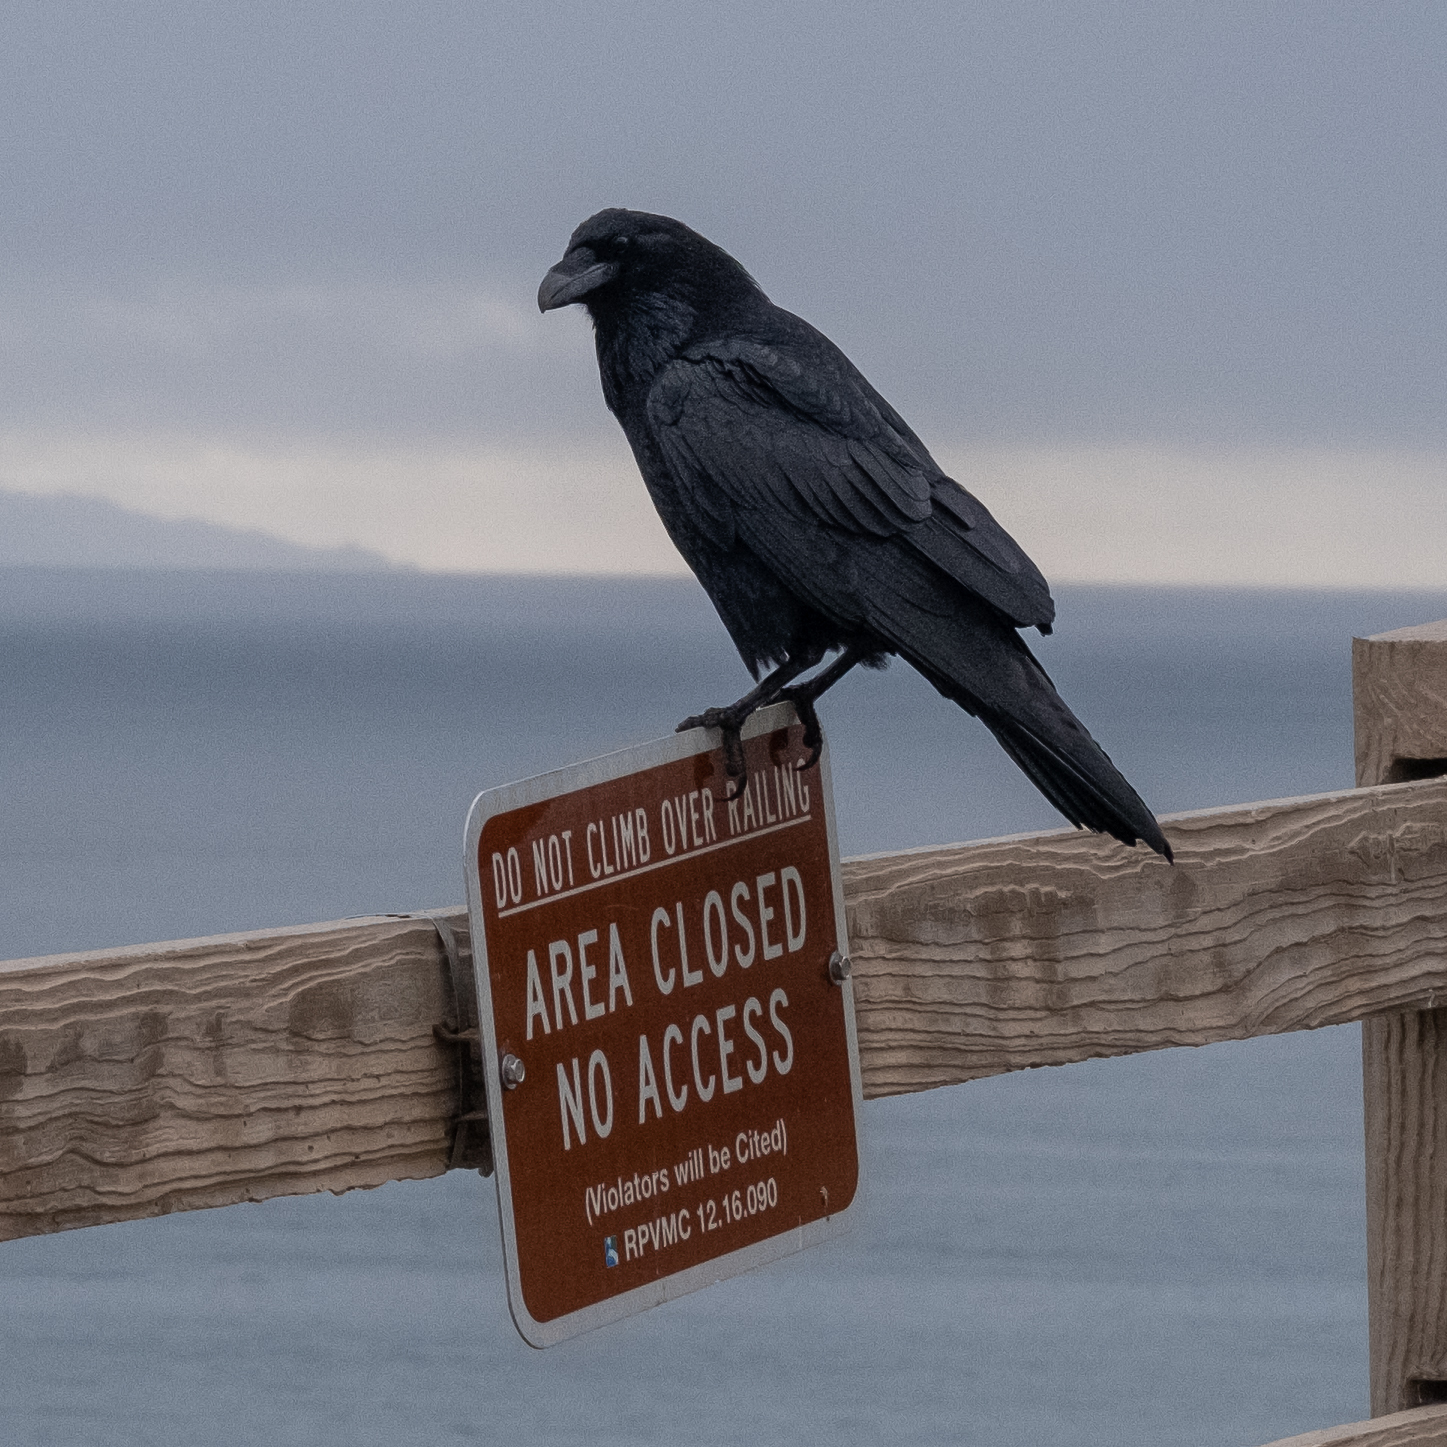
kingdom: Animalia
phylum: Chordata
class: Aves
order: Passeriformes
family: Corvidae
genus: Corvus
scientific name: Corvus corax
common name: Common raven
